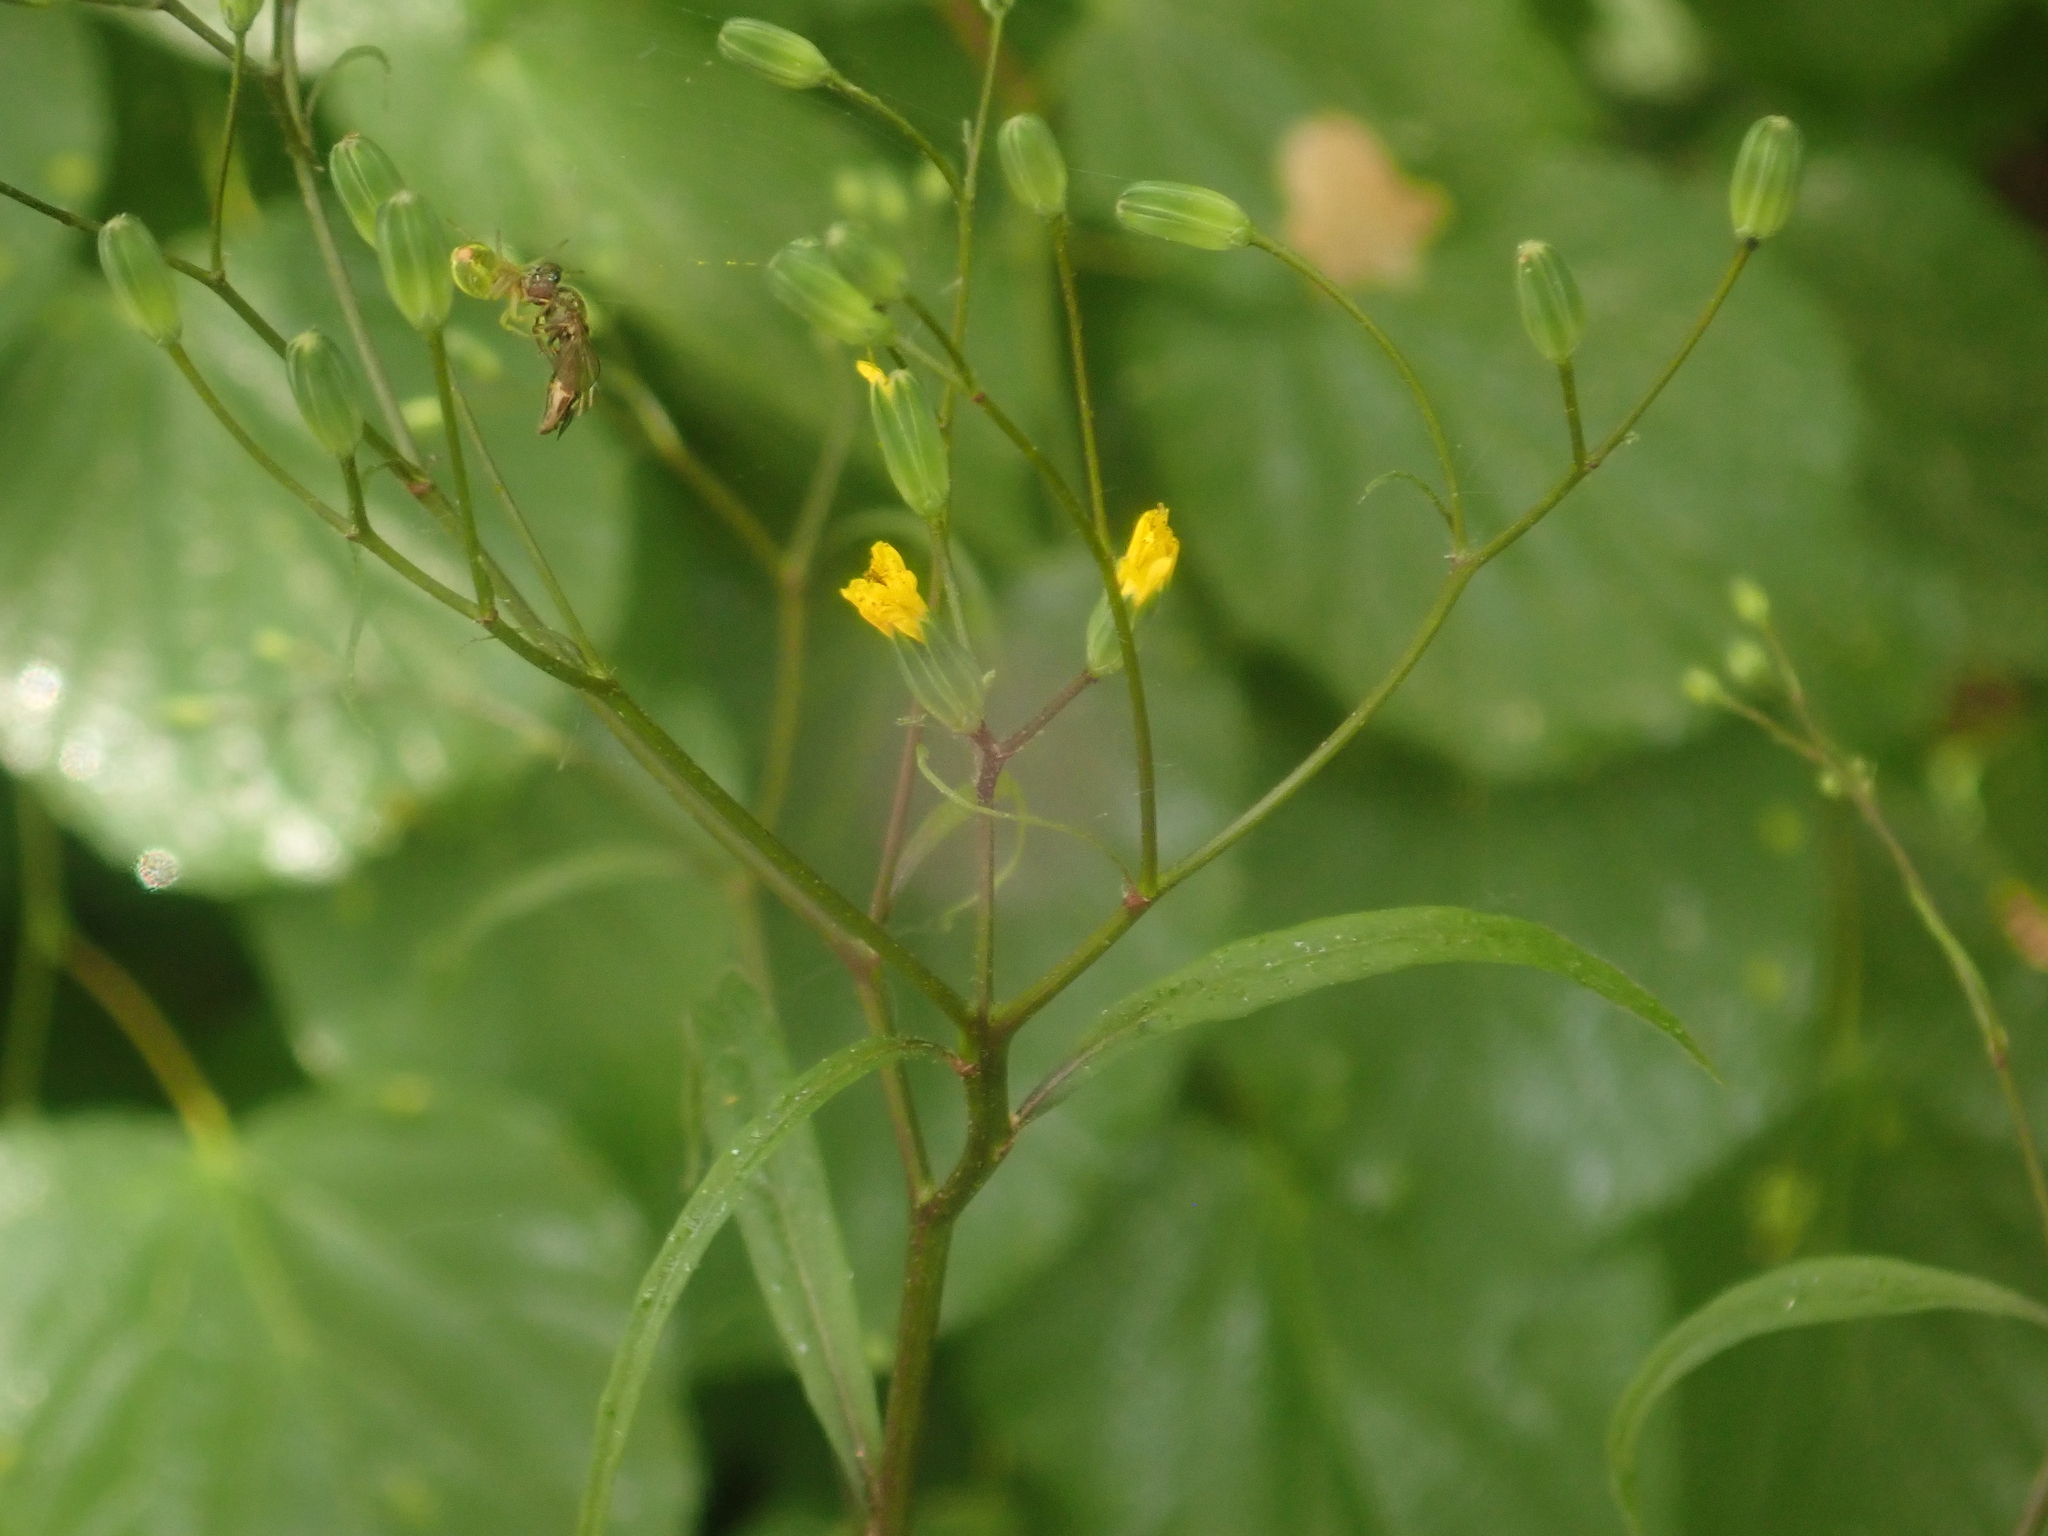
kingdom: Plantae
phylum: Tracheophyta
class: Magnoliopsida
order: Asterales
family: Asteraceae
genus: Lapsana
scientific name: Lapsana communis
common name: Nipplewort
